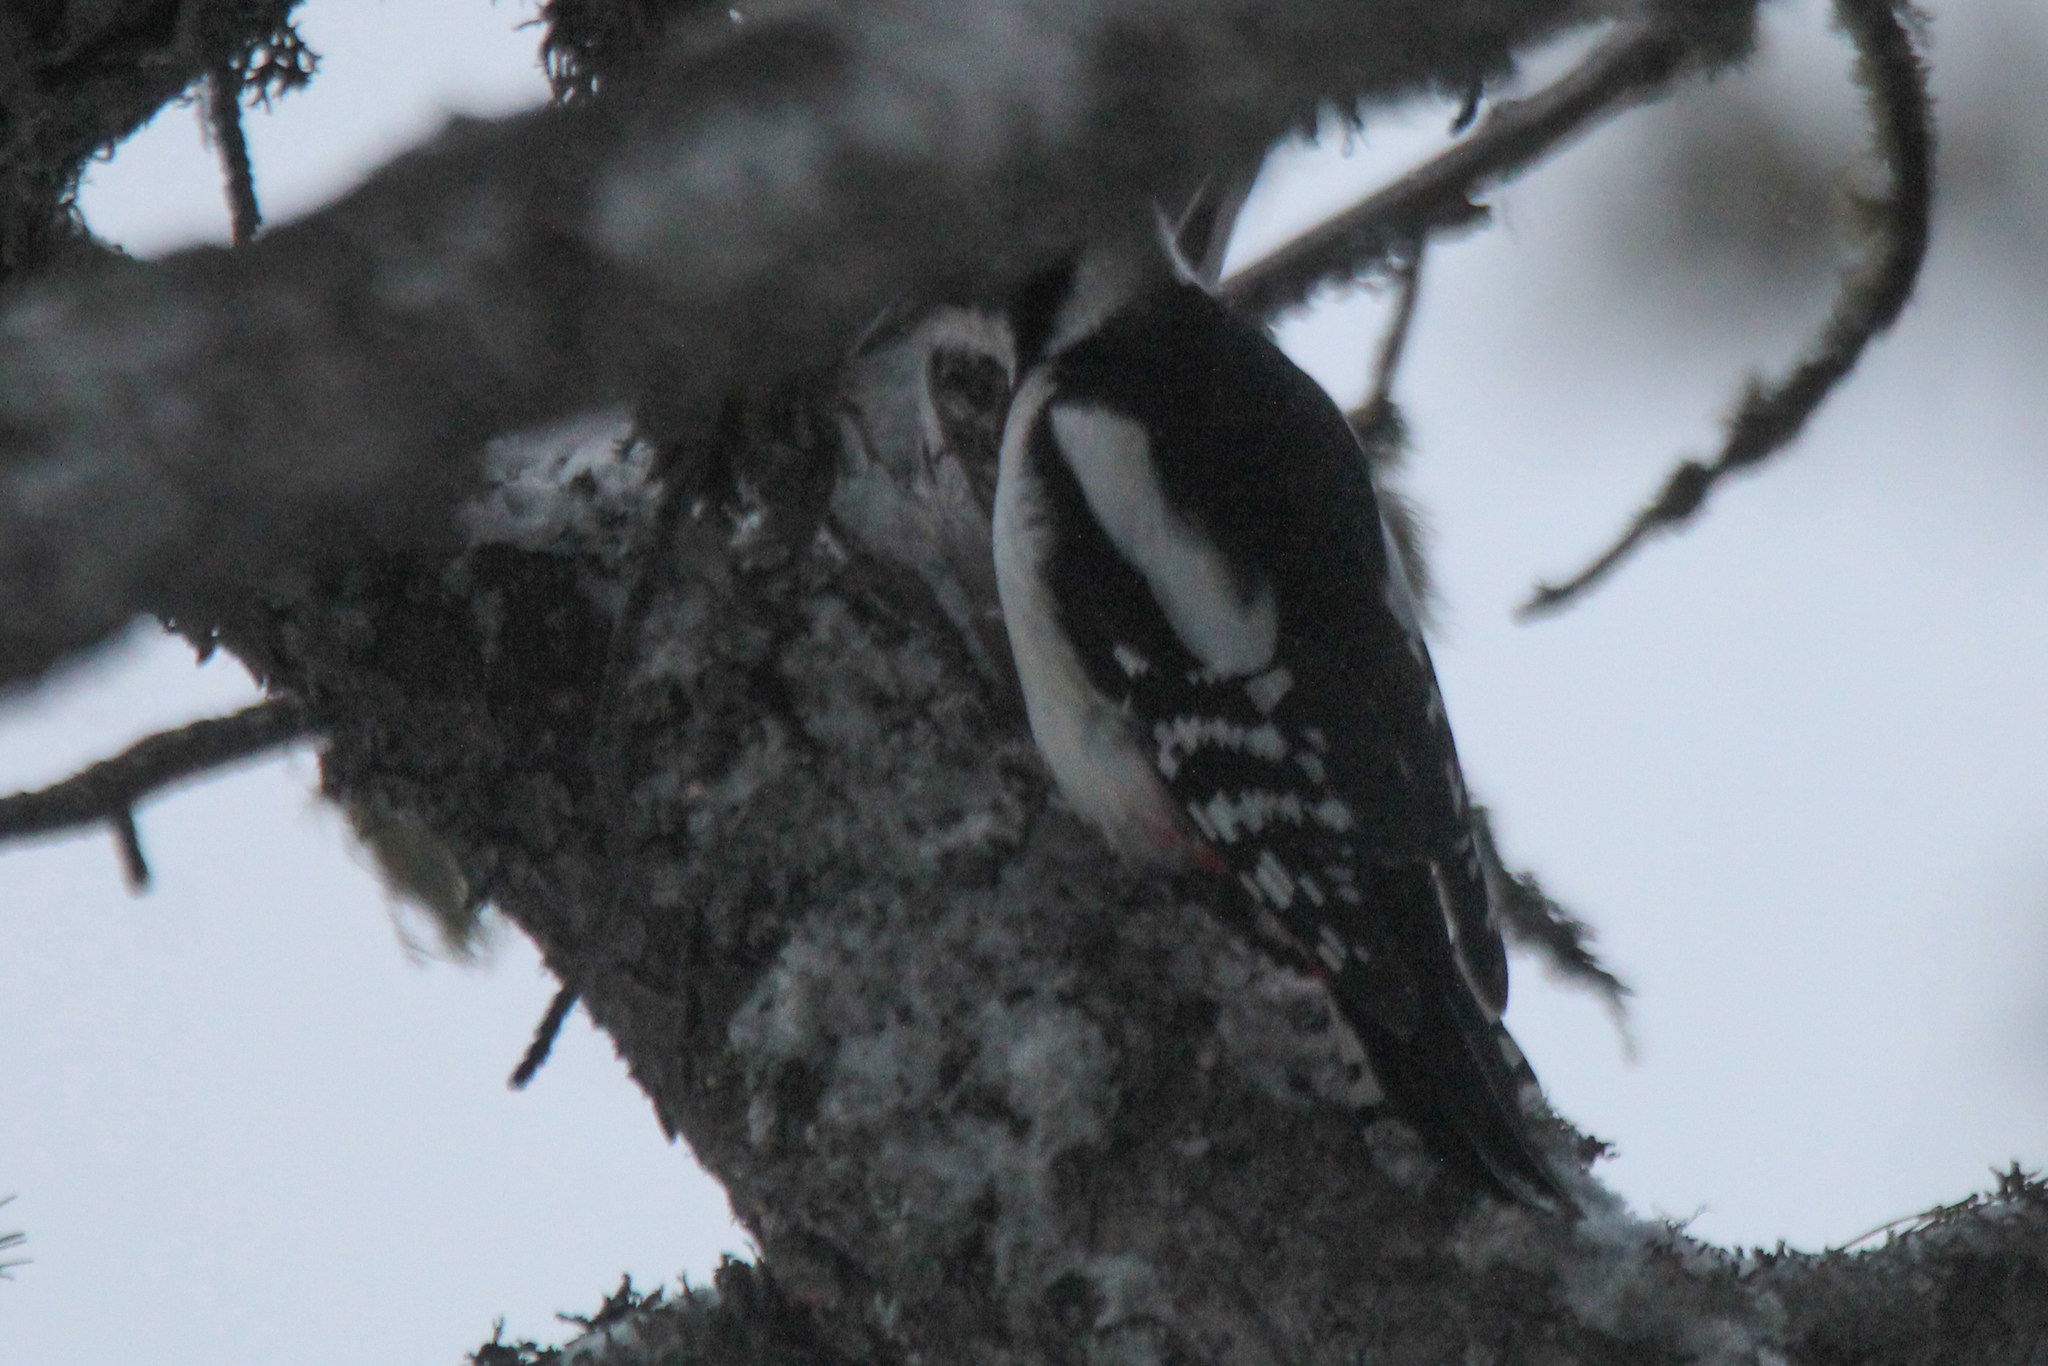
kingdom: Animalia
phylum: Chordata
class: Aves
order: Piciformes
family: Picidae
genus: Dendrocopos
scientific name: Dendrocopos major
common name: Great spotted woodpecker
